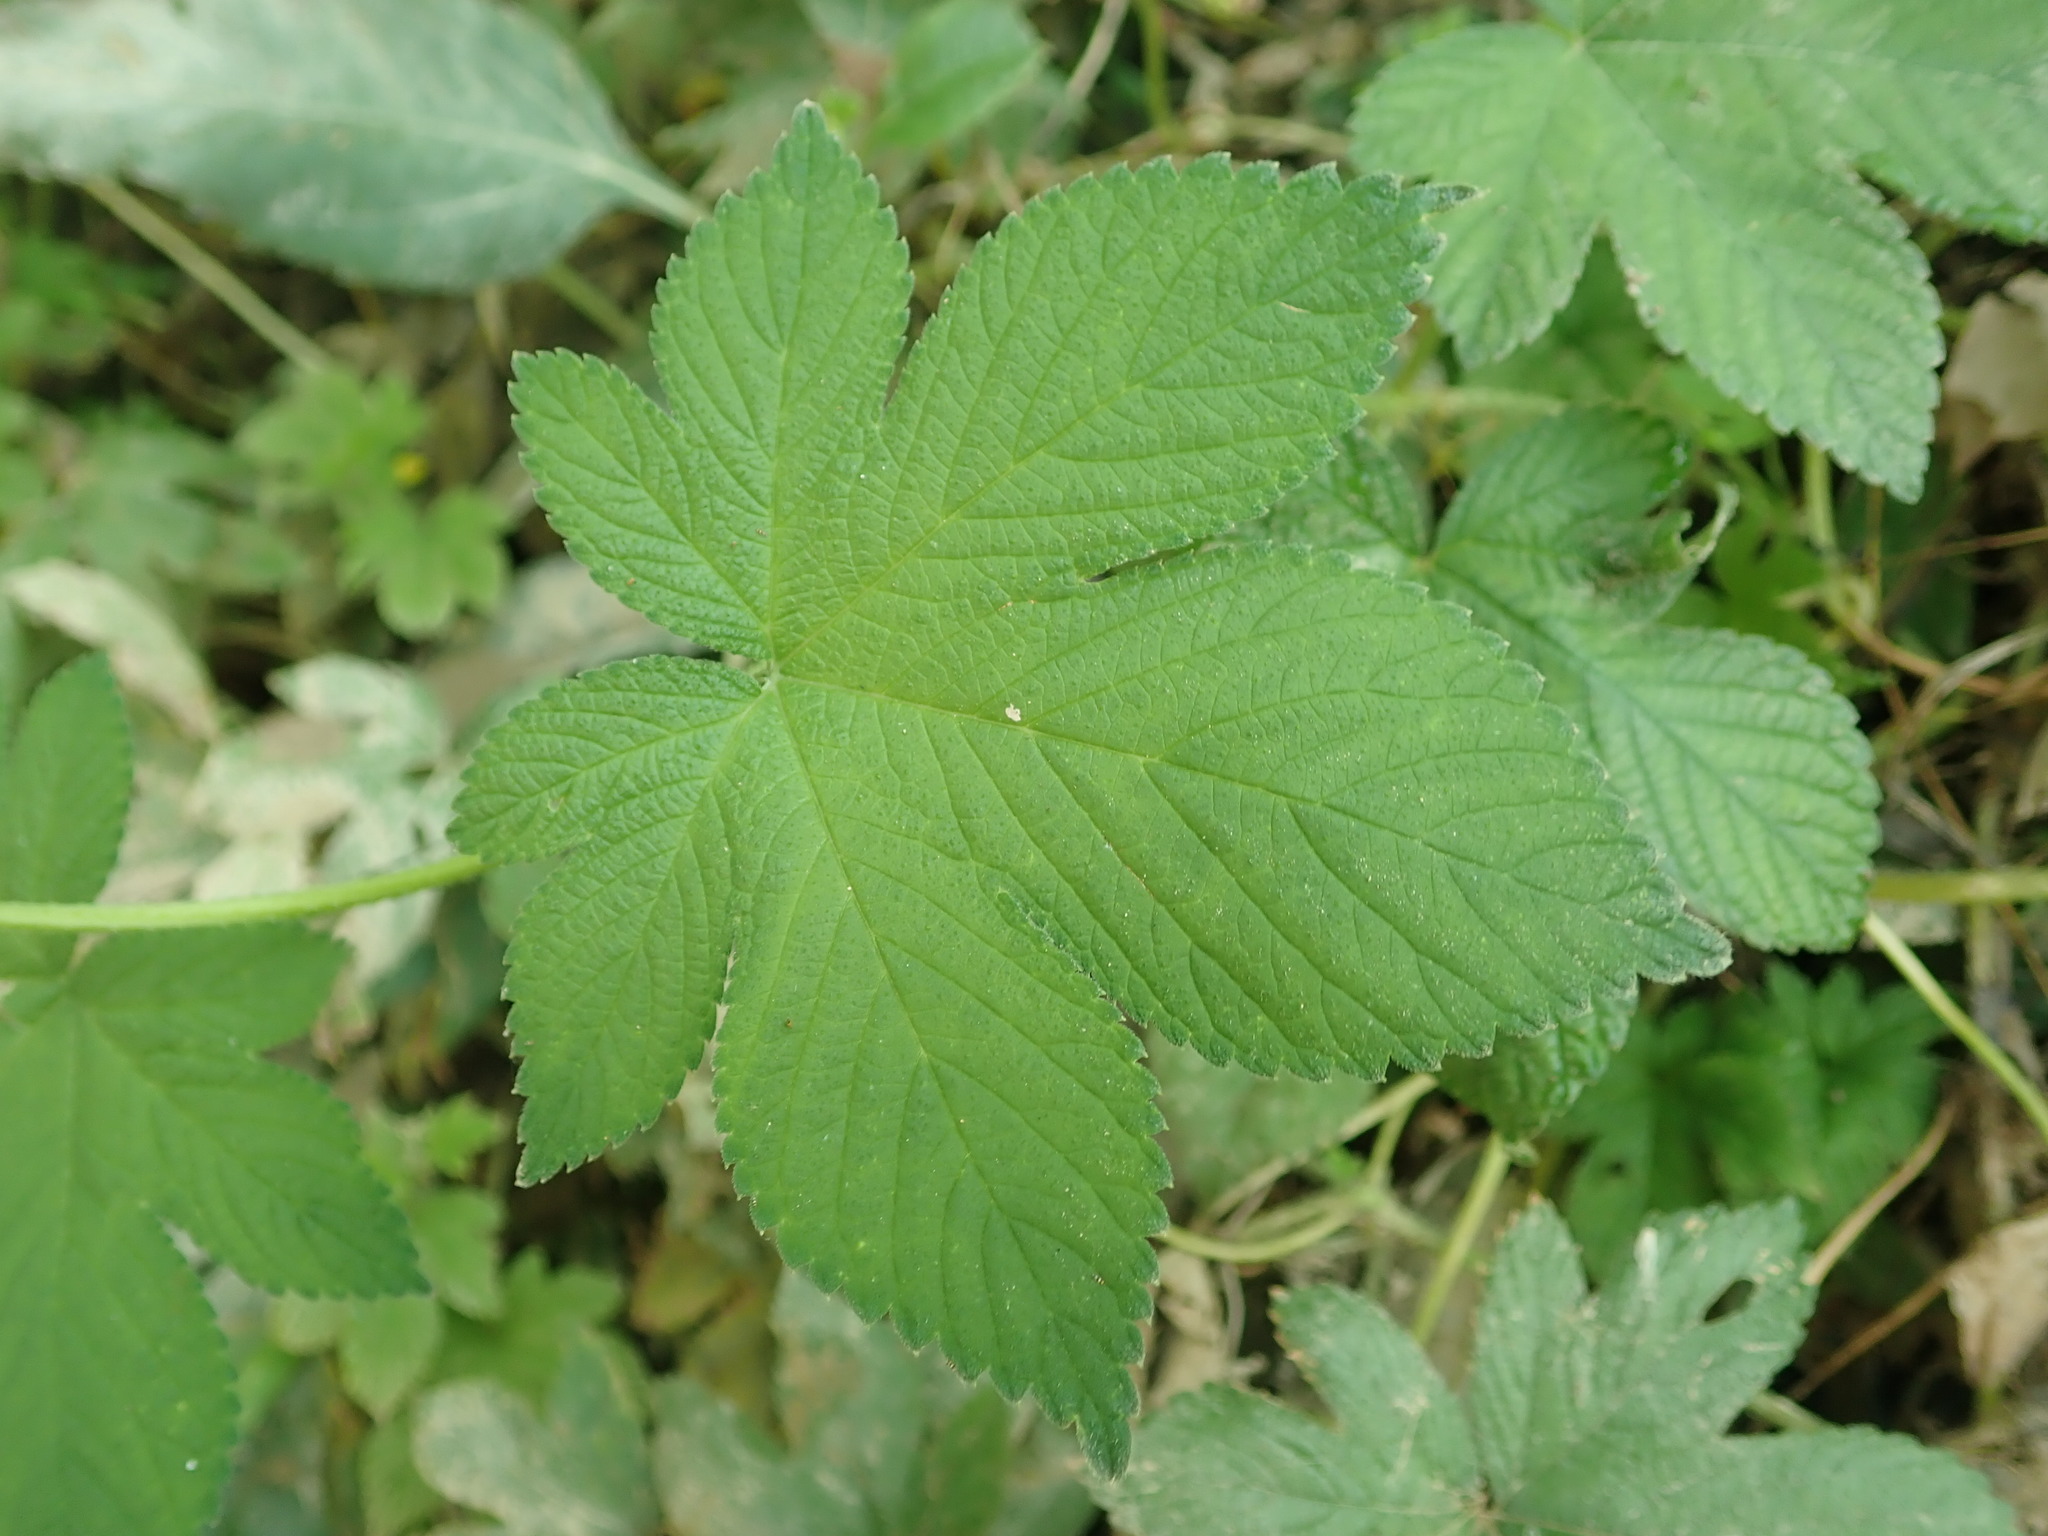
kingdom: Plantae
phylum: Tracheophyta
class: Magnoliopsida
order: Rosales
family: Cannabaceae
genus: Humulus
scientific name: Humulus scandens
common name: Japanese hop
